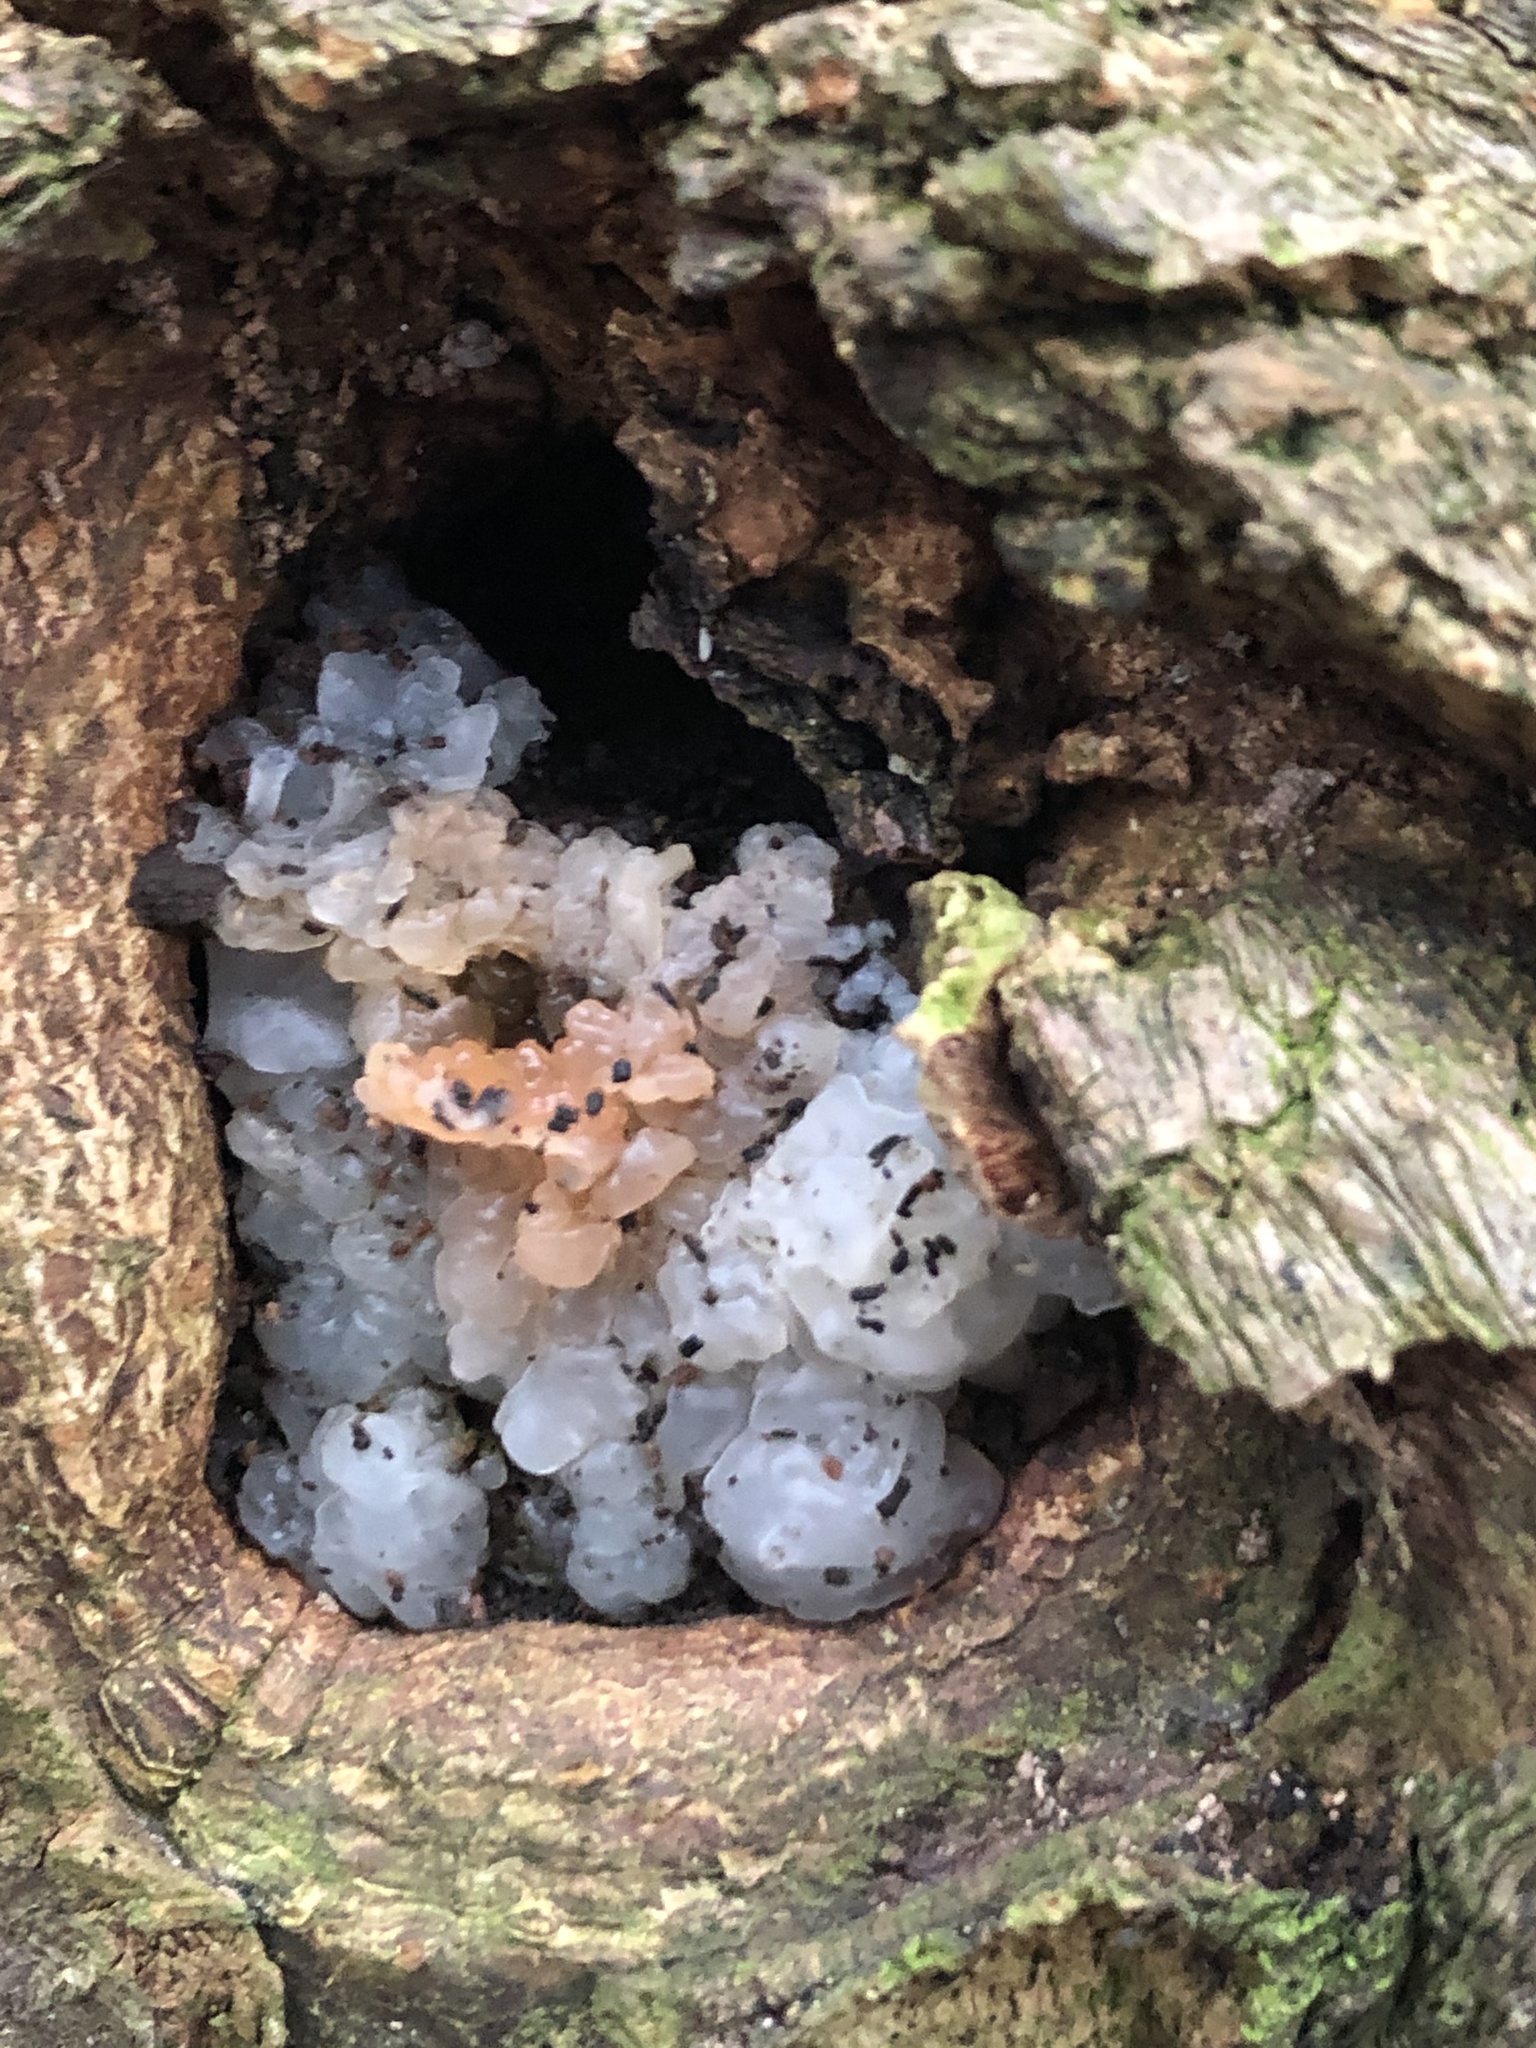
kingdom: Fungi
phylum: Basidiomycota
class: Agaricomycetes
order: Auriculariales
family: Hyaloriaceae
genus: Myxarium
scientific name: Myxarium nucleatum
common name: Crystal brain fungus
